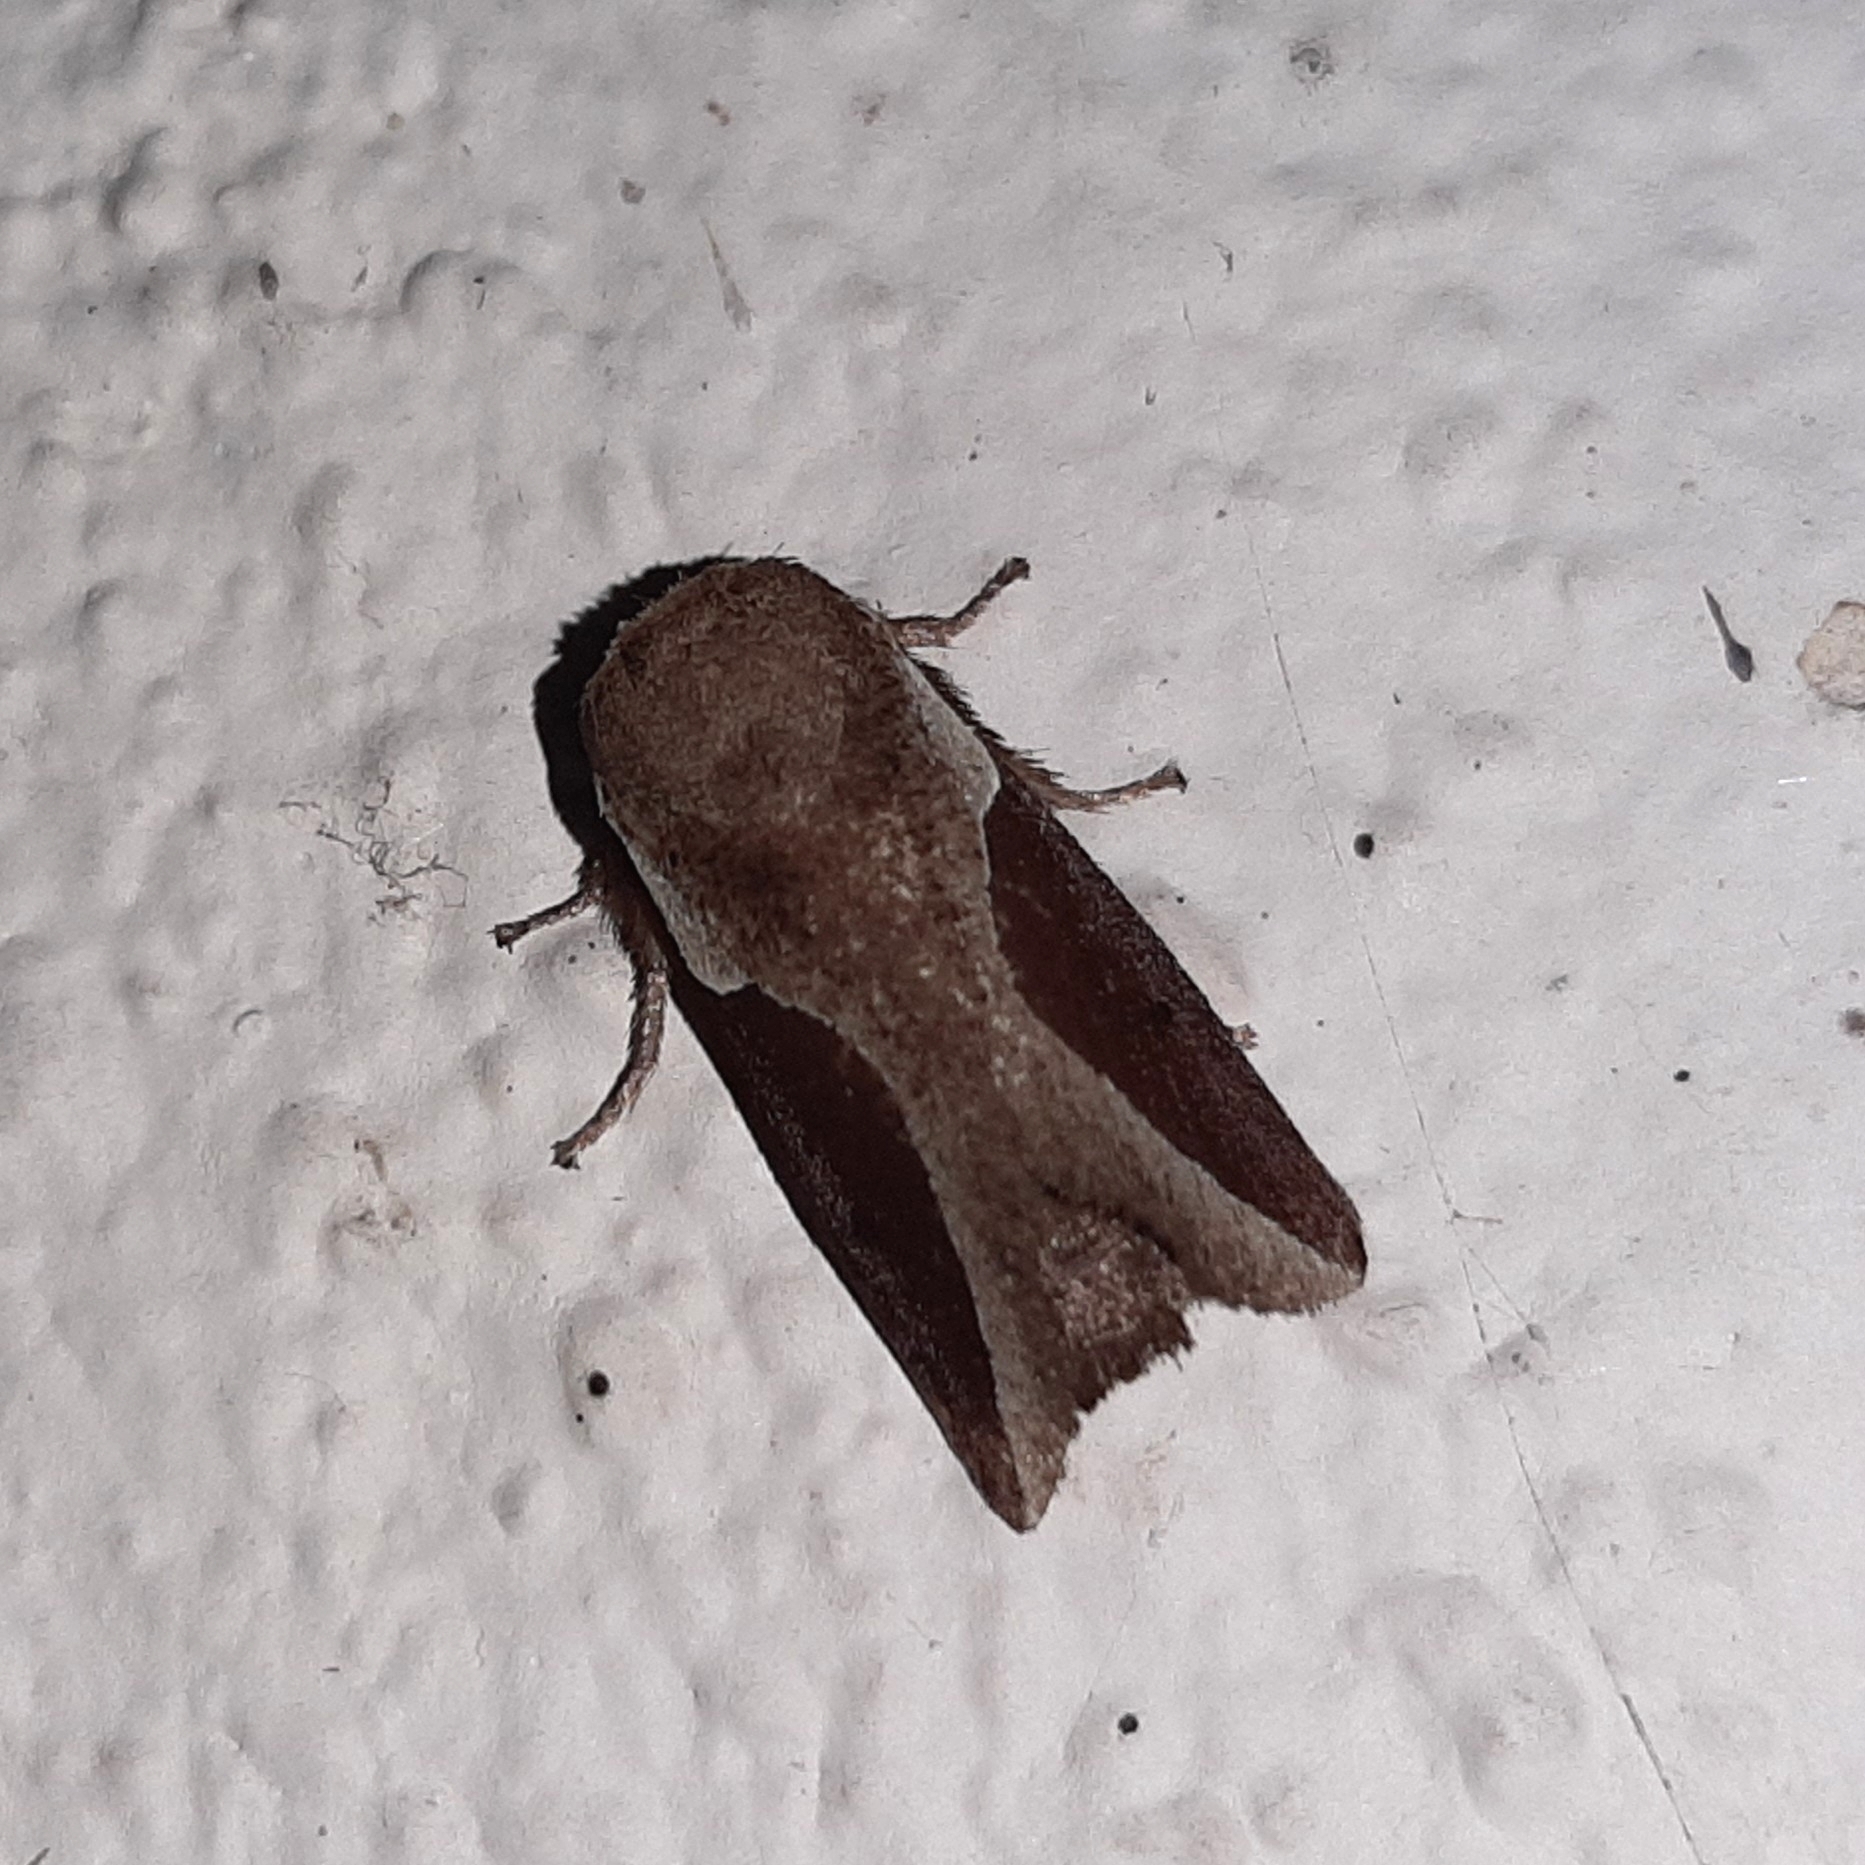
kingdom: Animalia
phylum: Arthropoda
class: Insecta
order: Lepidoptera
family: Limacodidae
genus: Prolimacodes
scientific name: Prolimacodes badia
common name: Skiff moth
